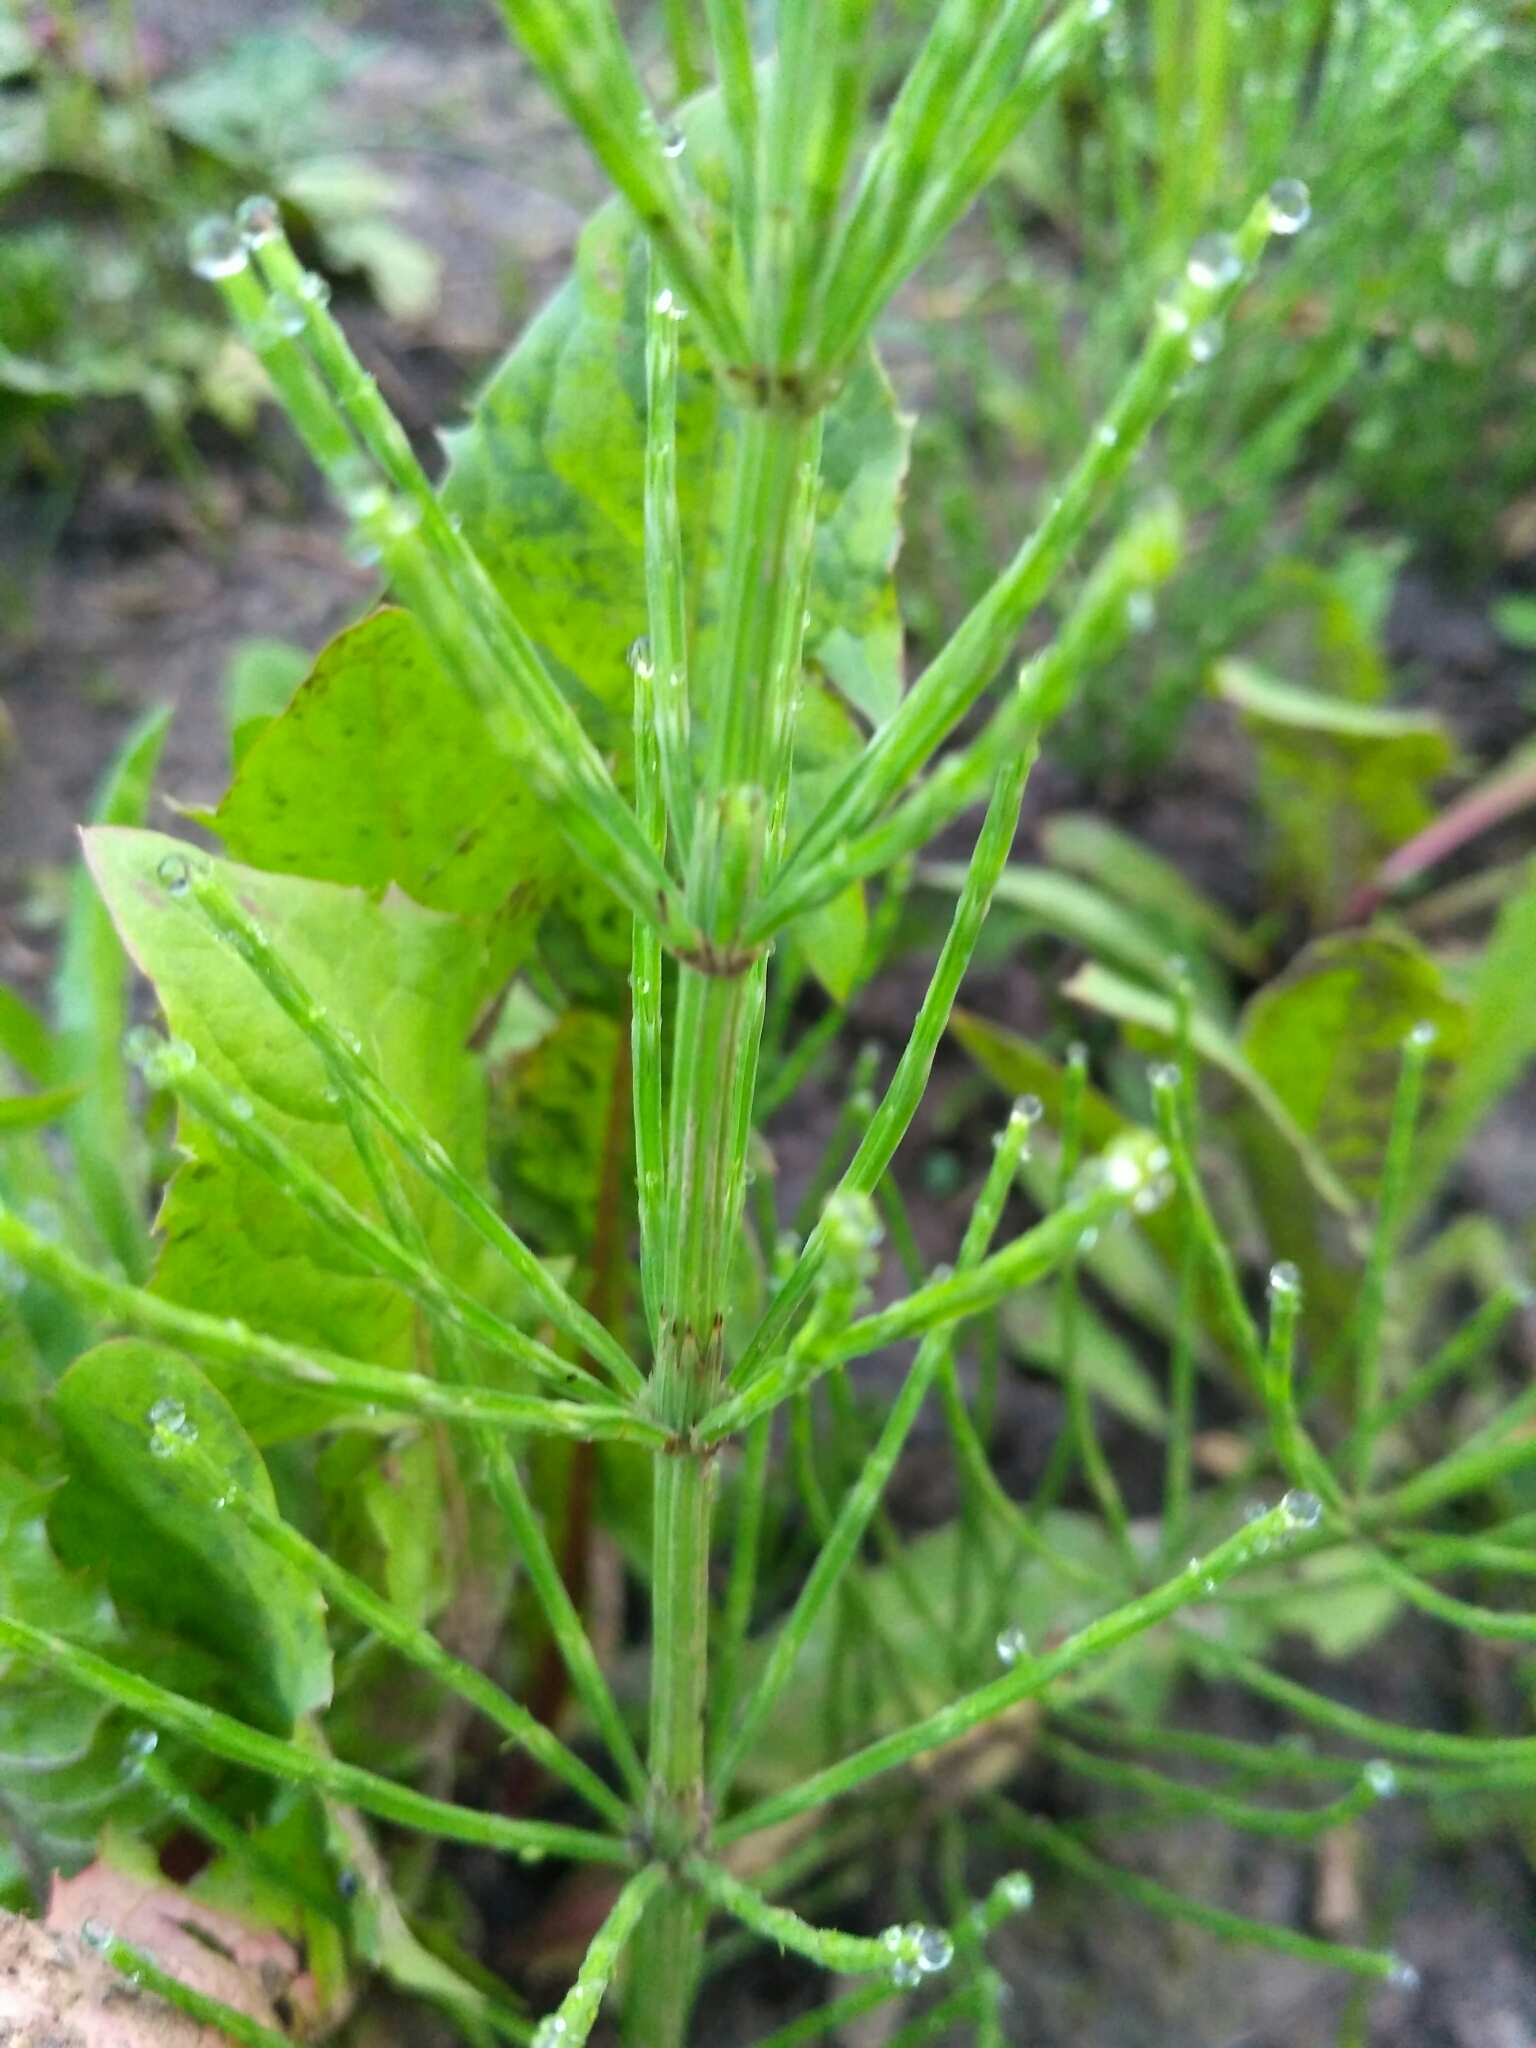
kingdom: Plantae
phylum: Tracheophyta
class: Polypodiopsida
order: Equisetales
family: Equisetaceae
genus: Equisetum
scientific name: Equisetum arvense
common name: Field horsetail
